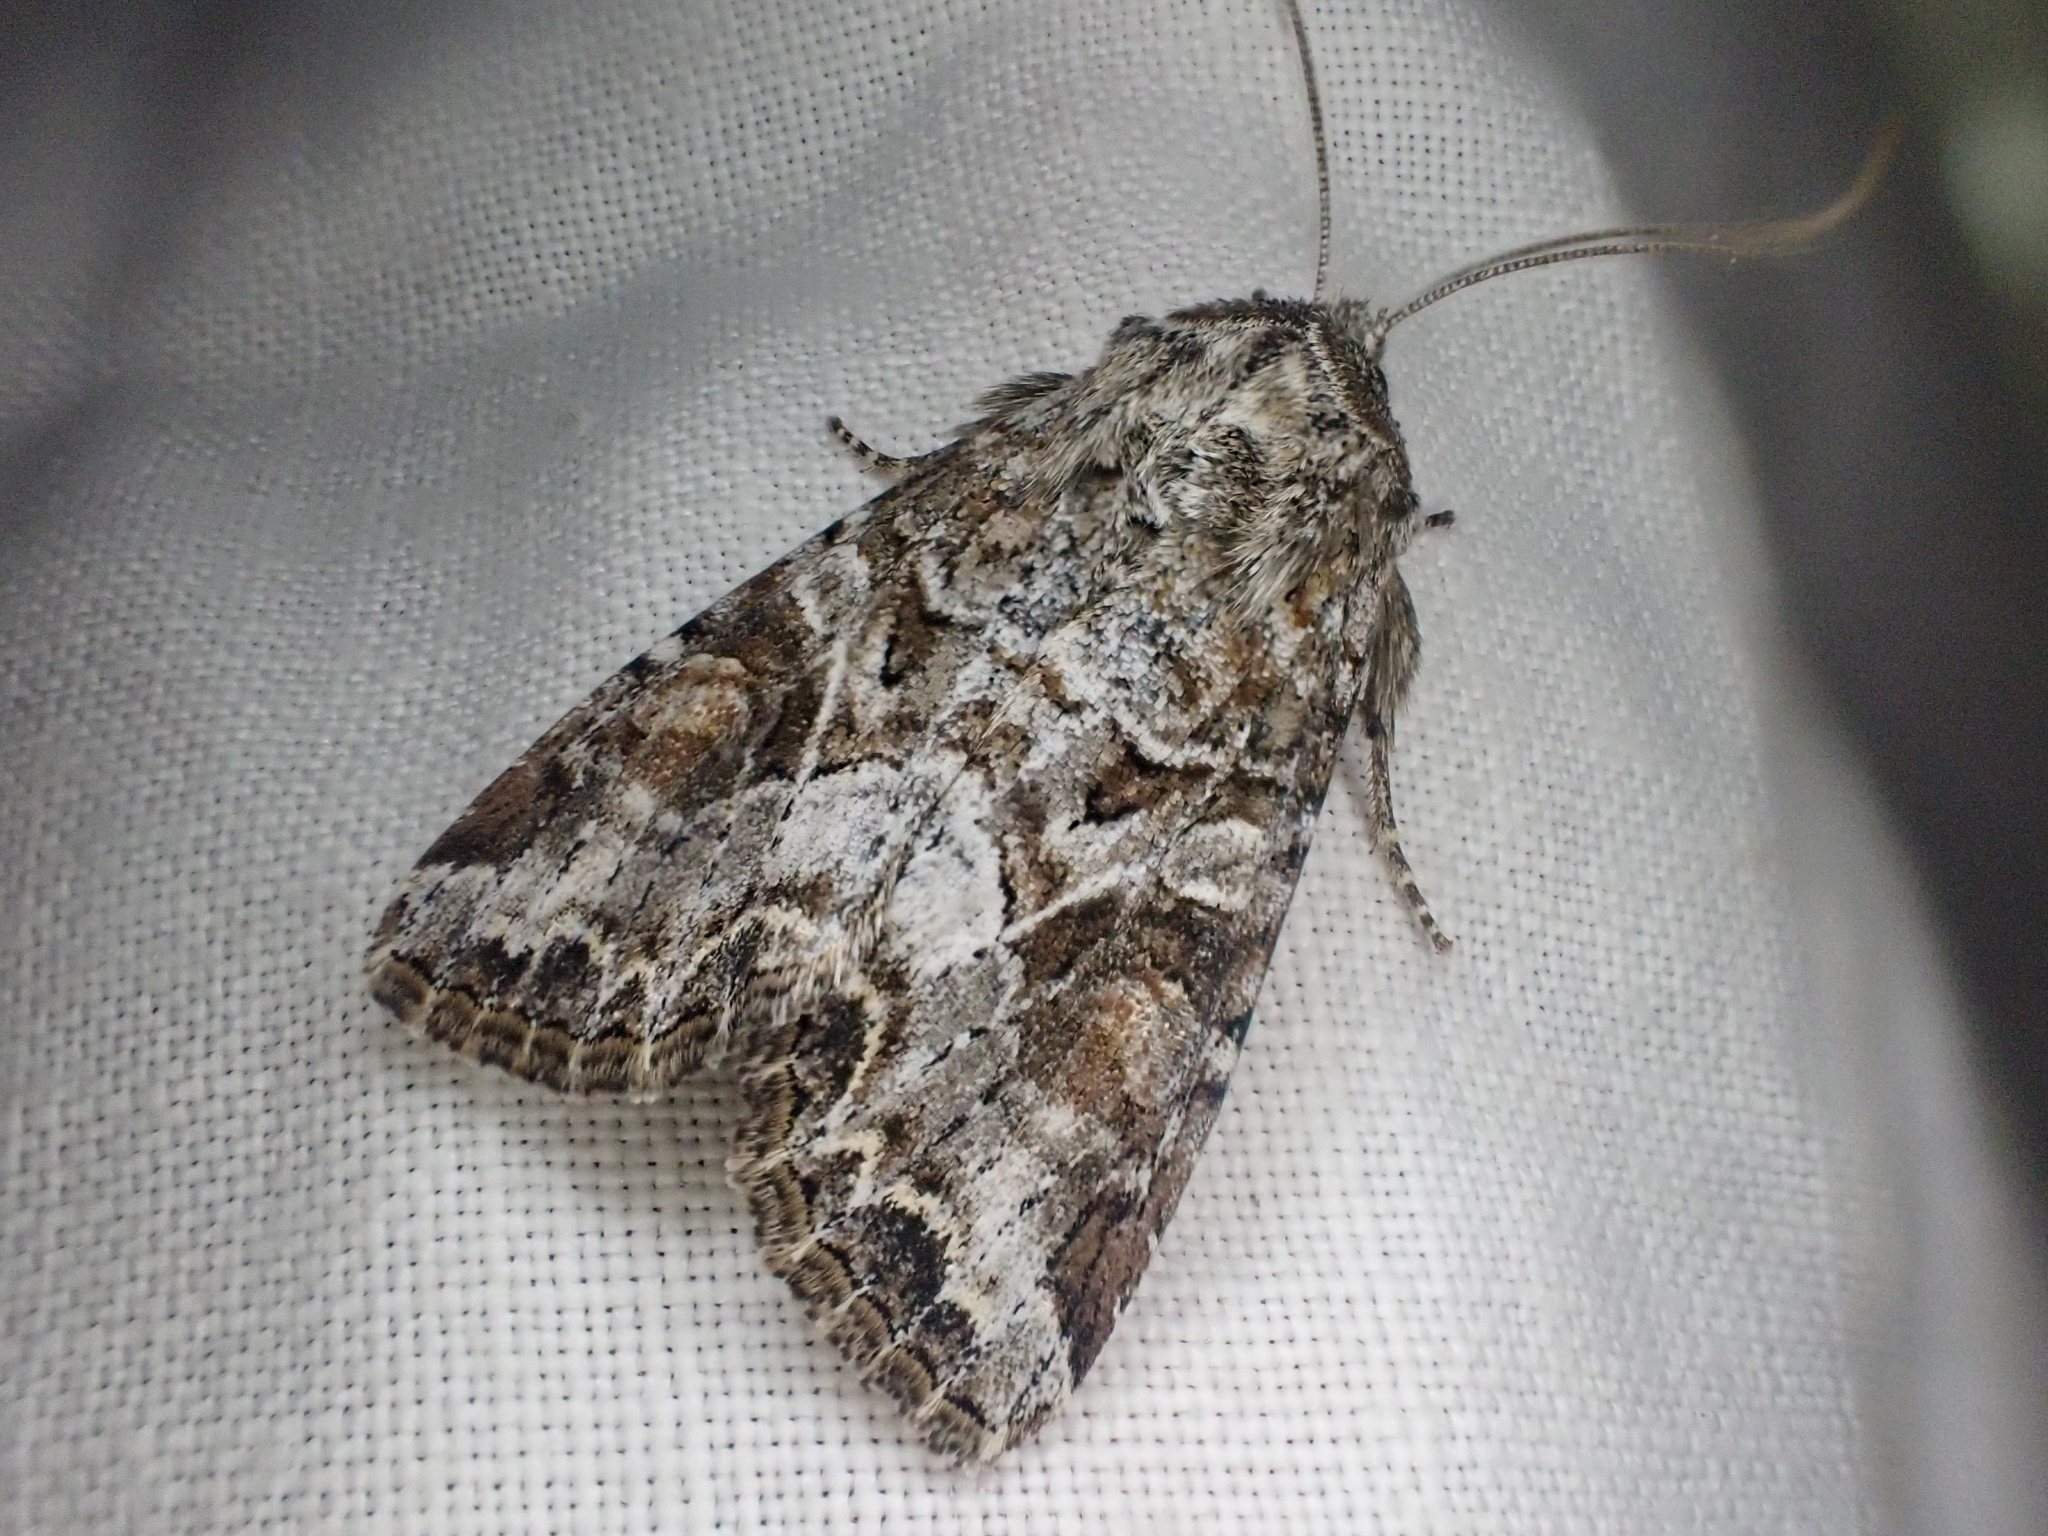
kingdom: Animalia
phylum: Arthropoda
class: Insecta
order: Lepidoptera
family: Noctuidae
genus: Trichordestra
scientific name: Trichordestra liquida
